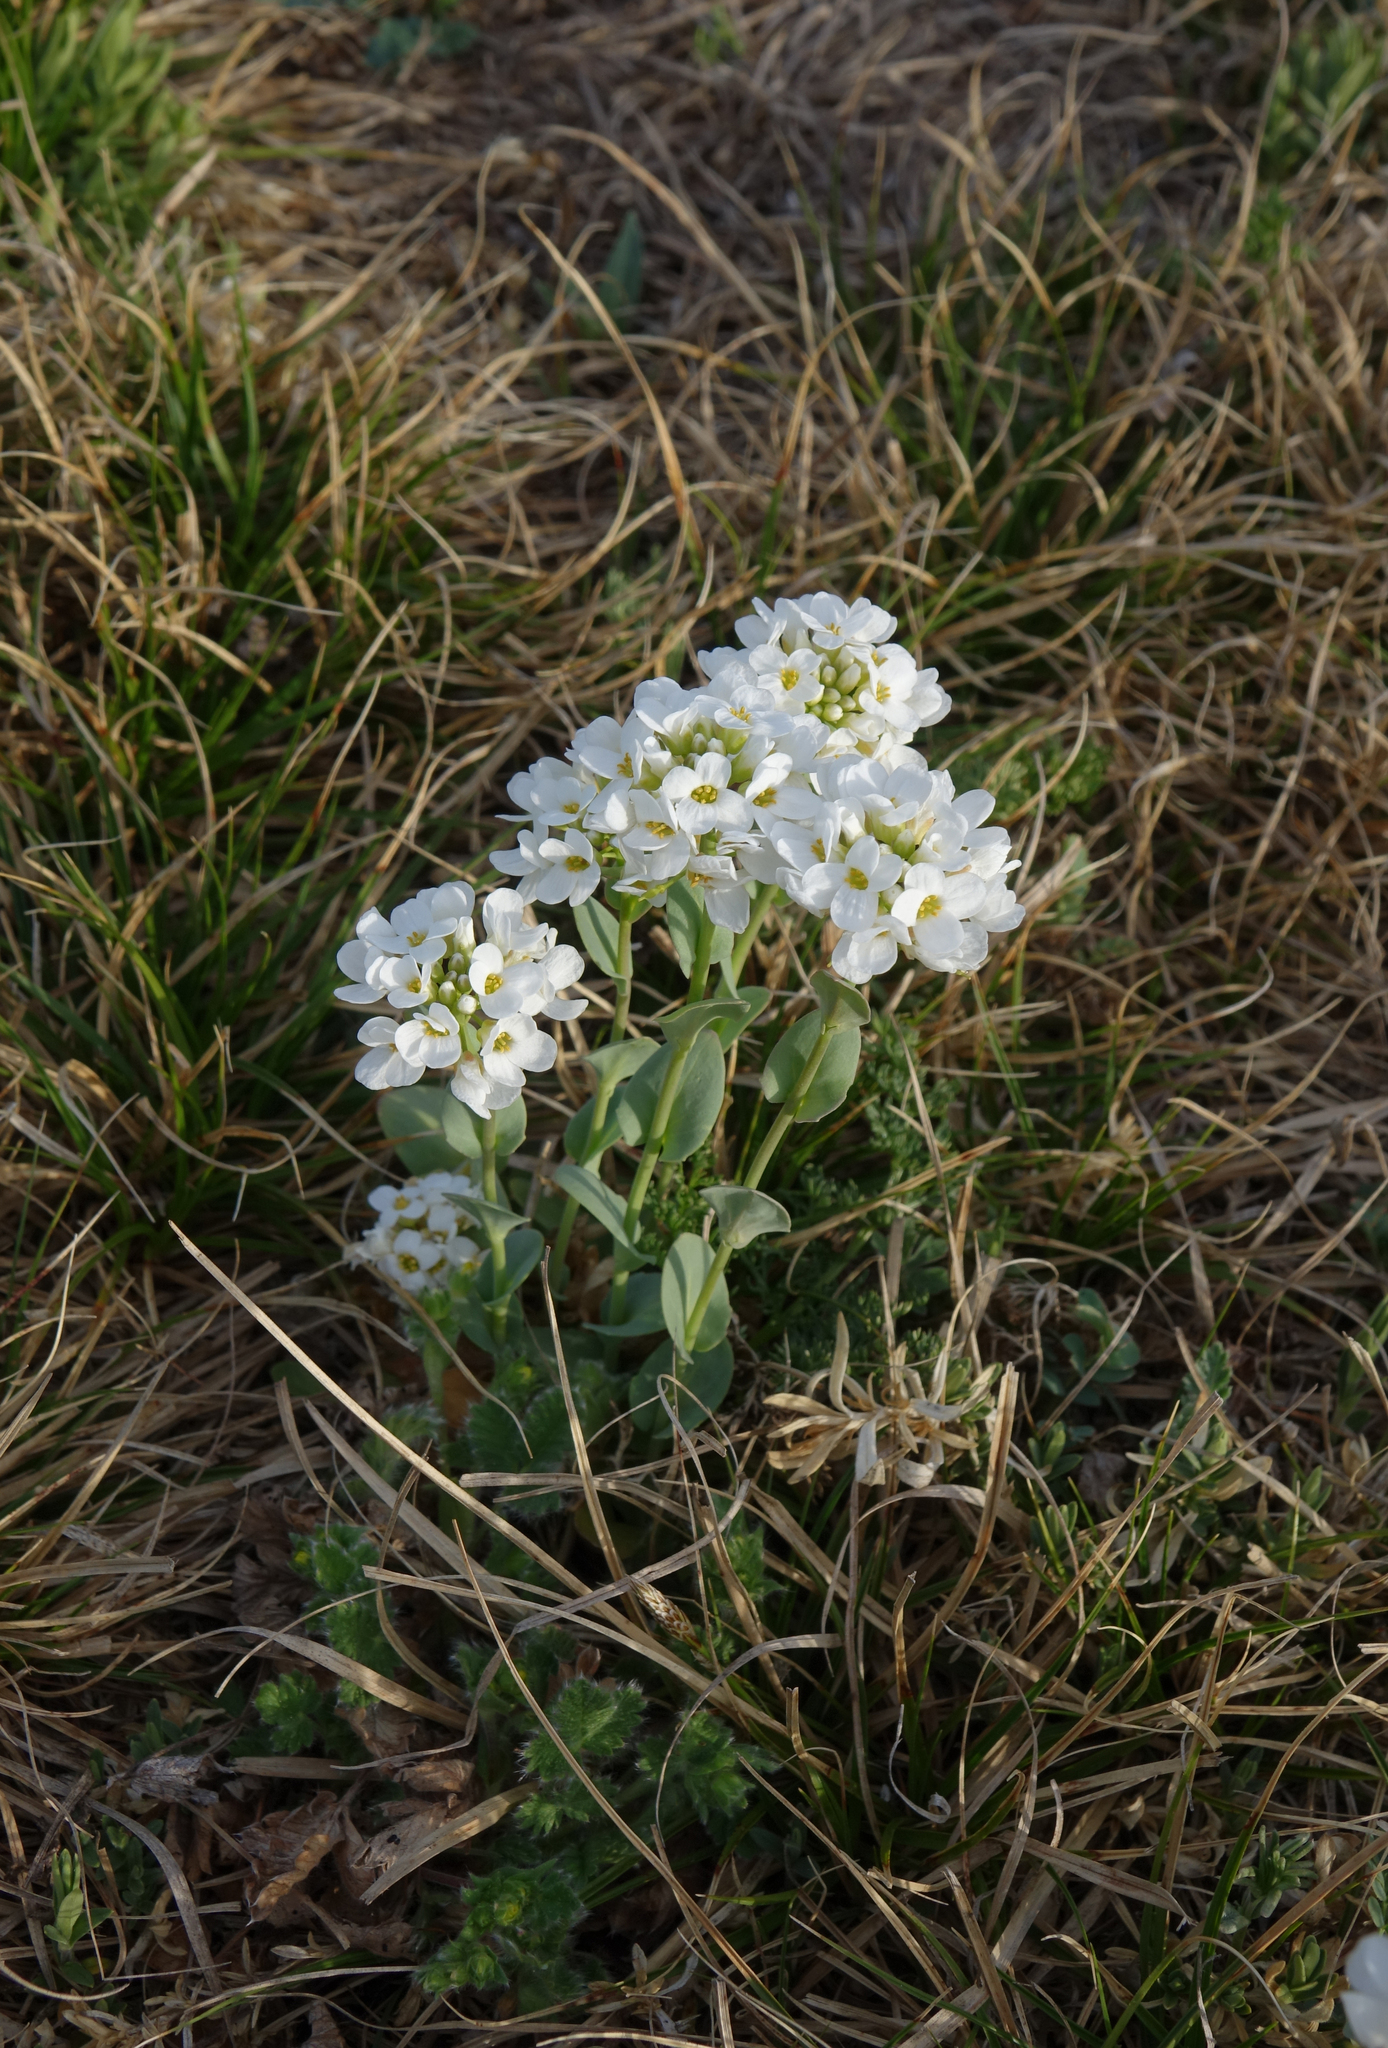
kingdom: Plantae
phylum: Tracheophyta
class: Magnoliopsida
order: Brassicales
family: Brassicaceae
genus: Noccaea
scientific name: Noccaea thlaspidioides
